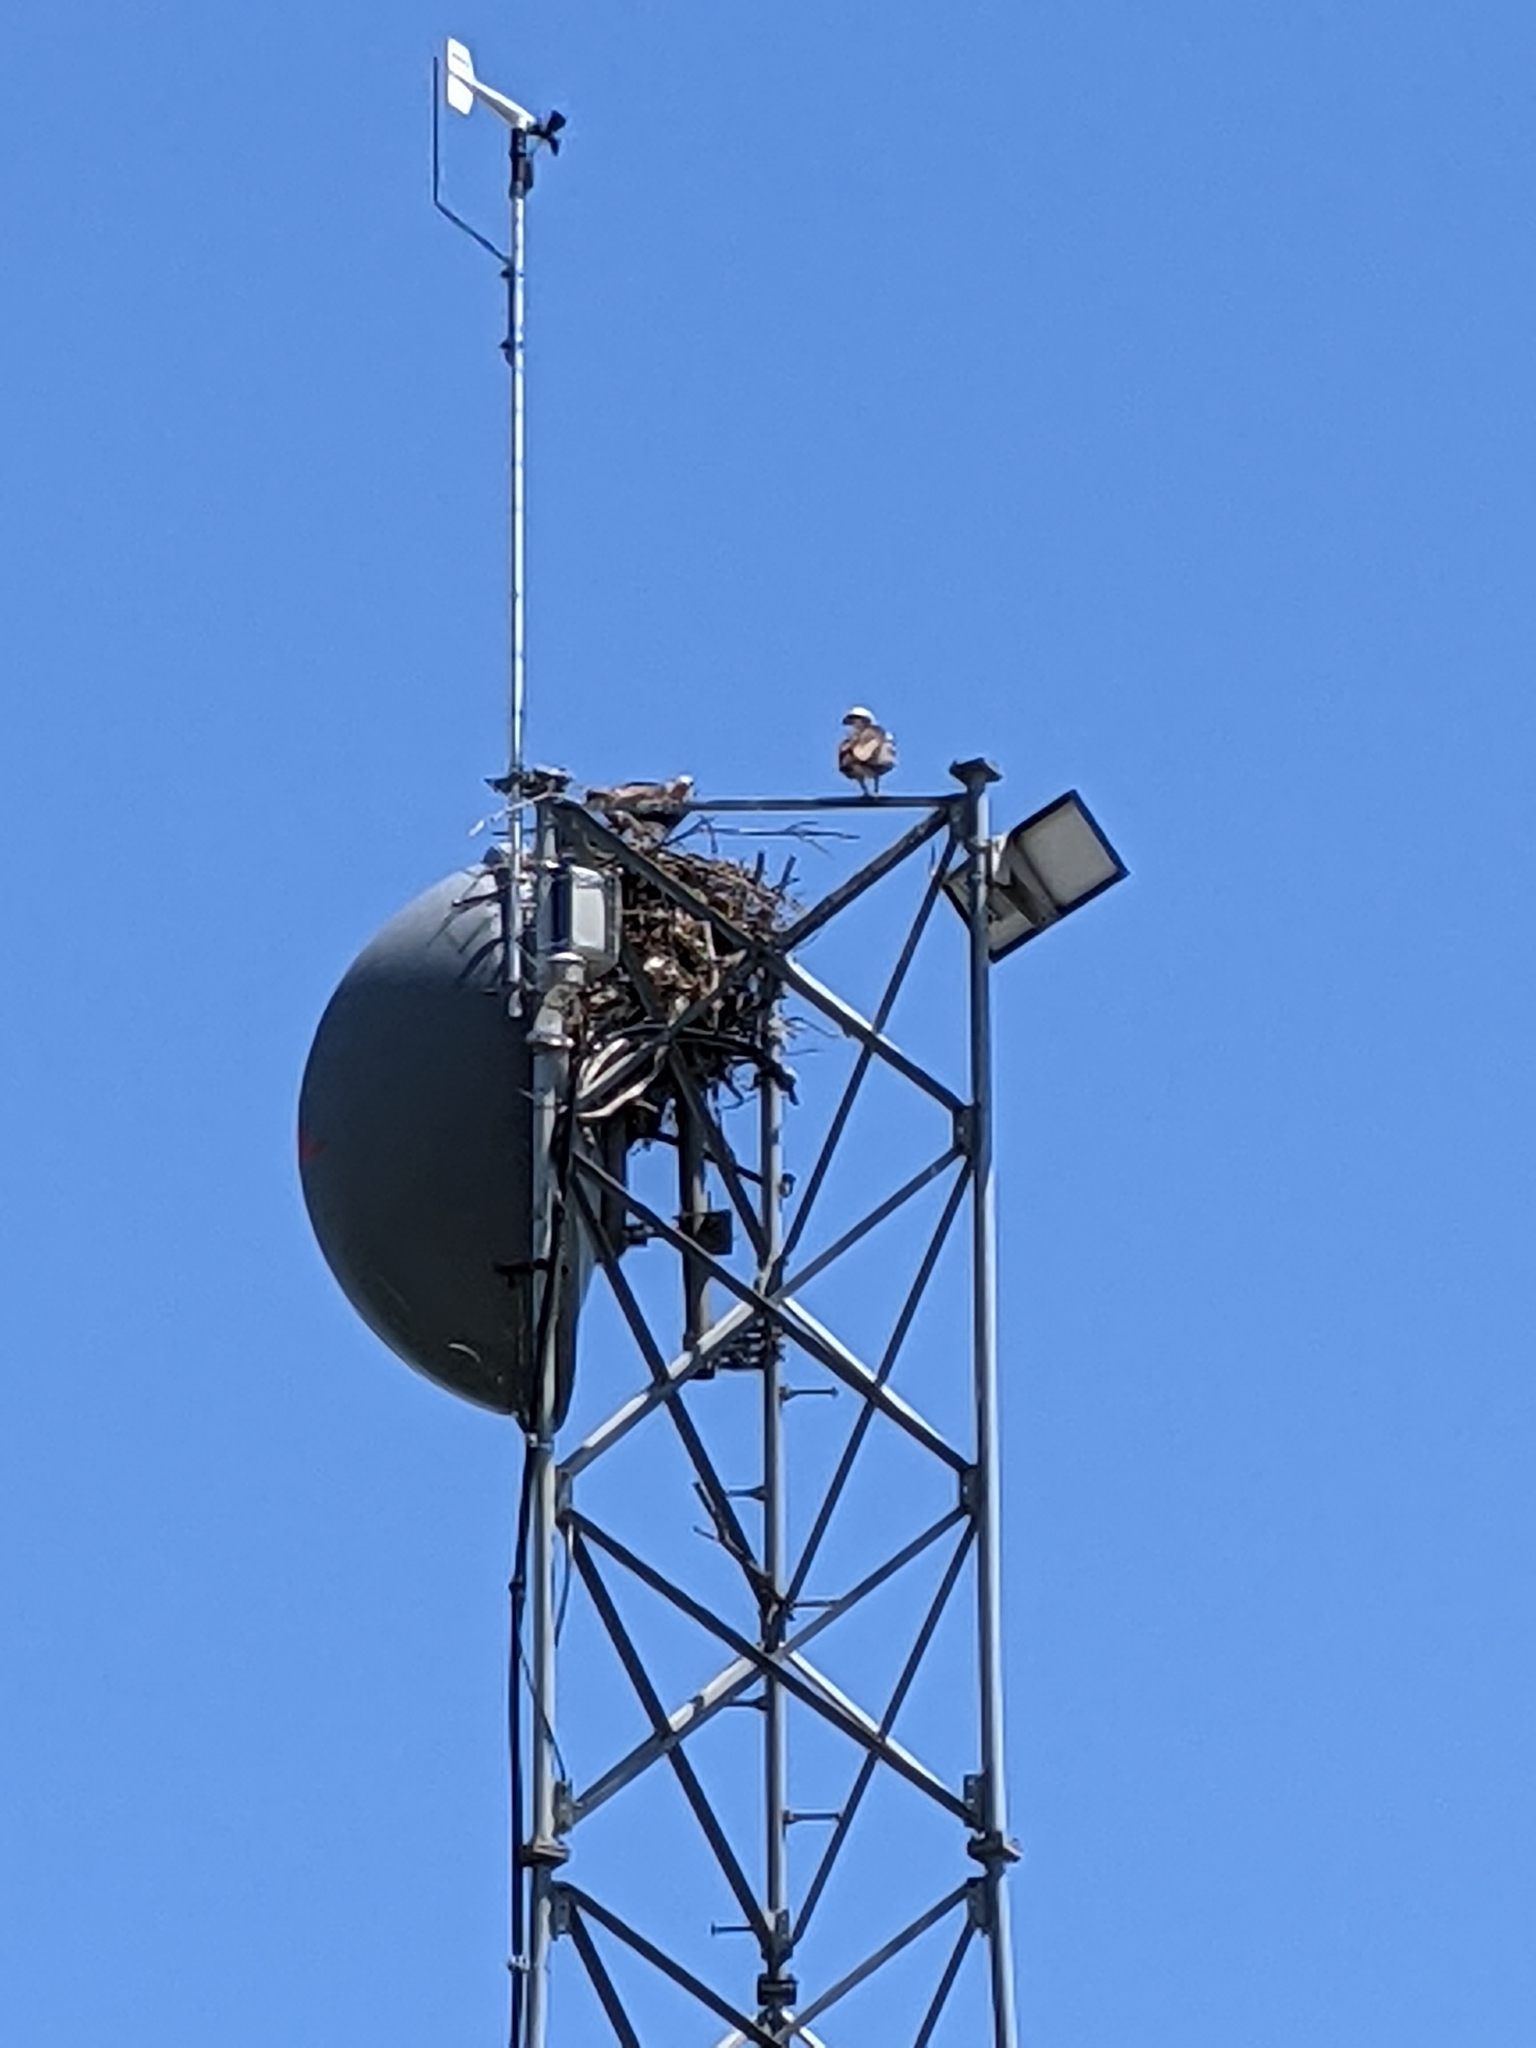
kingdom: Animalia
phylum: Chordata
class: Aves
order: Accipitriformes
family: Pandionidae
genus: Pandion
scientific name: Pandion haliaetus
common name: Osprey
